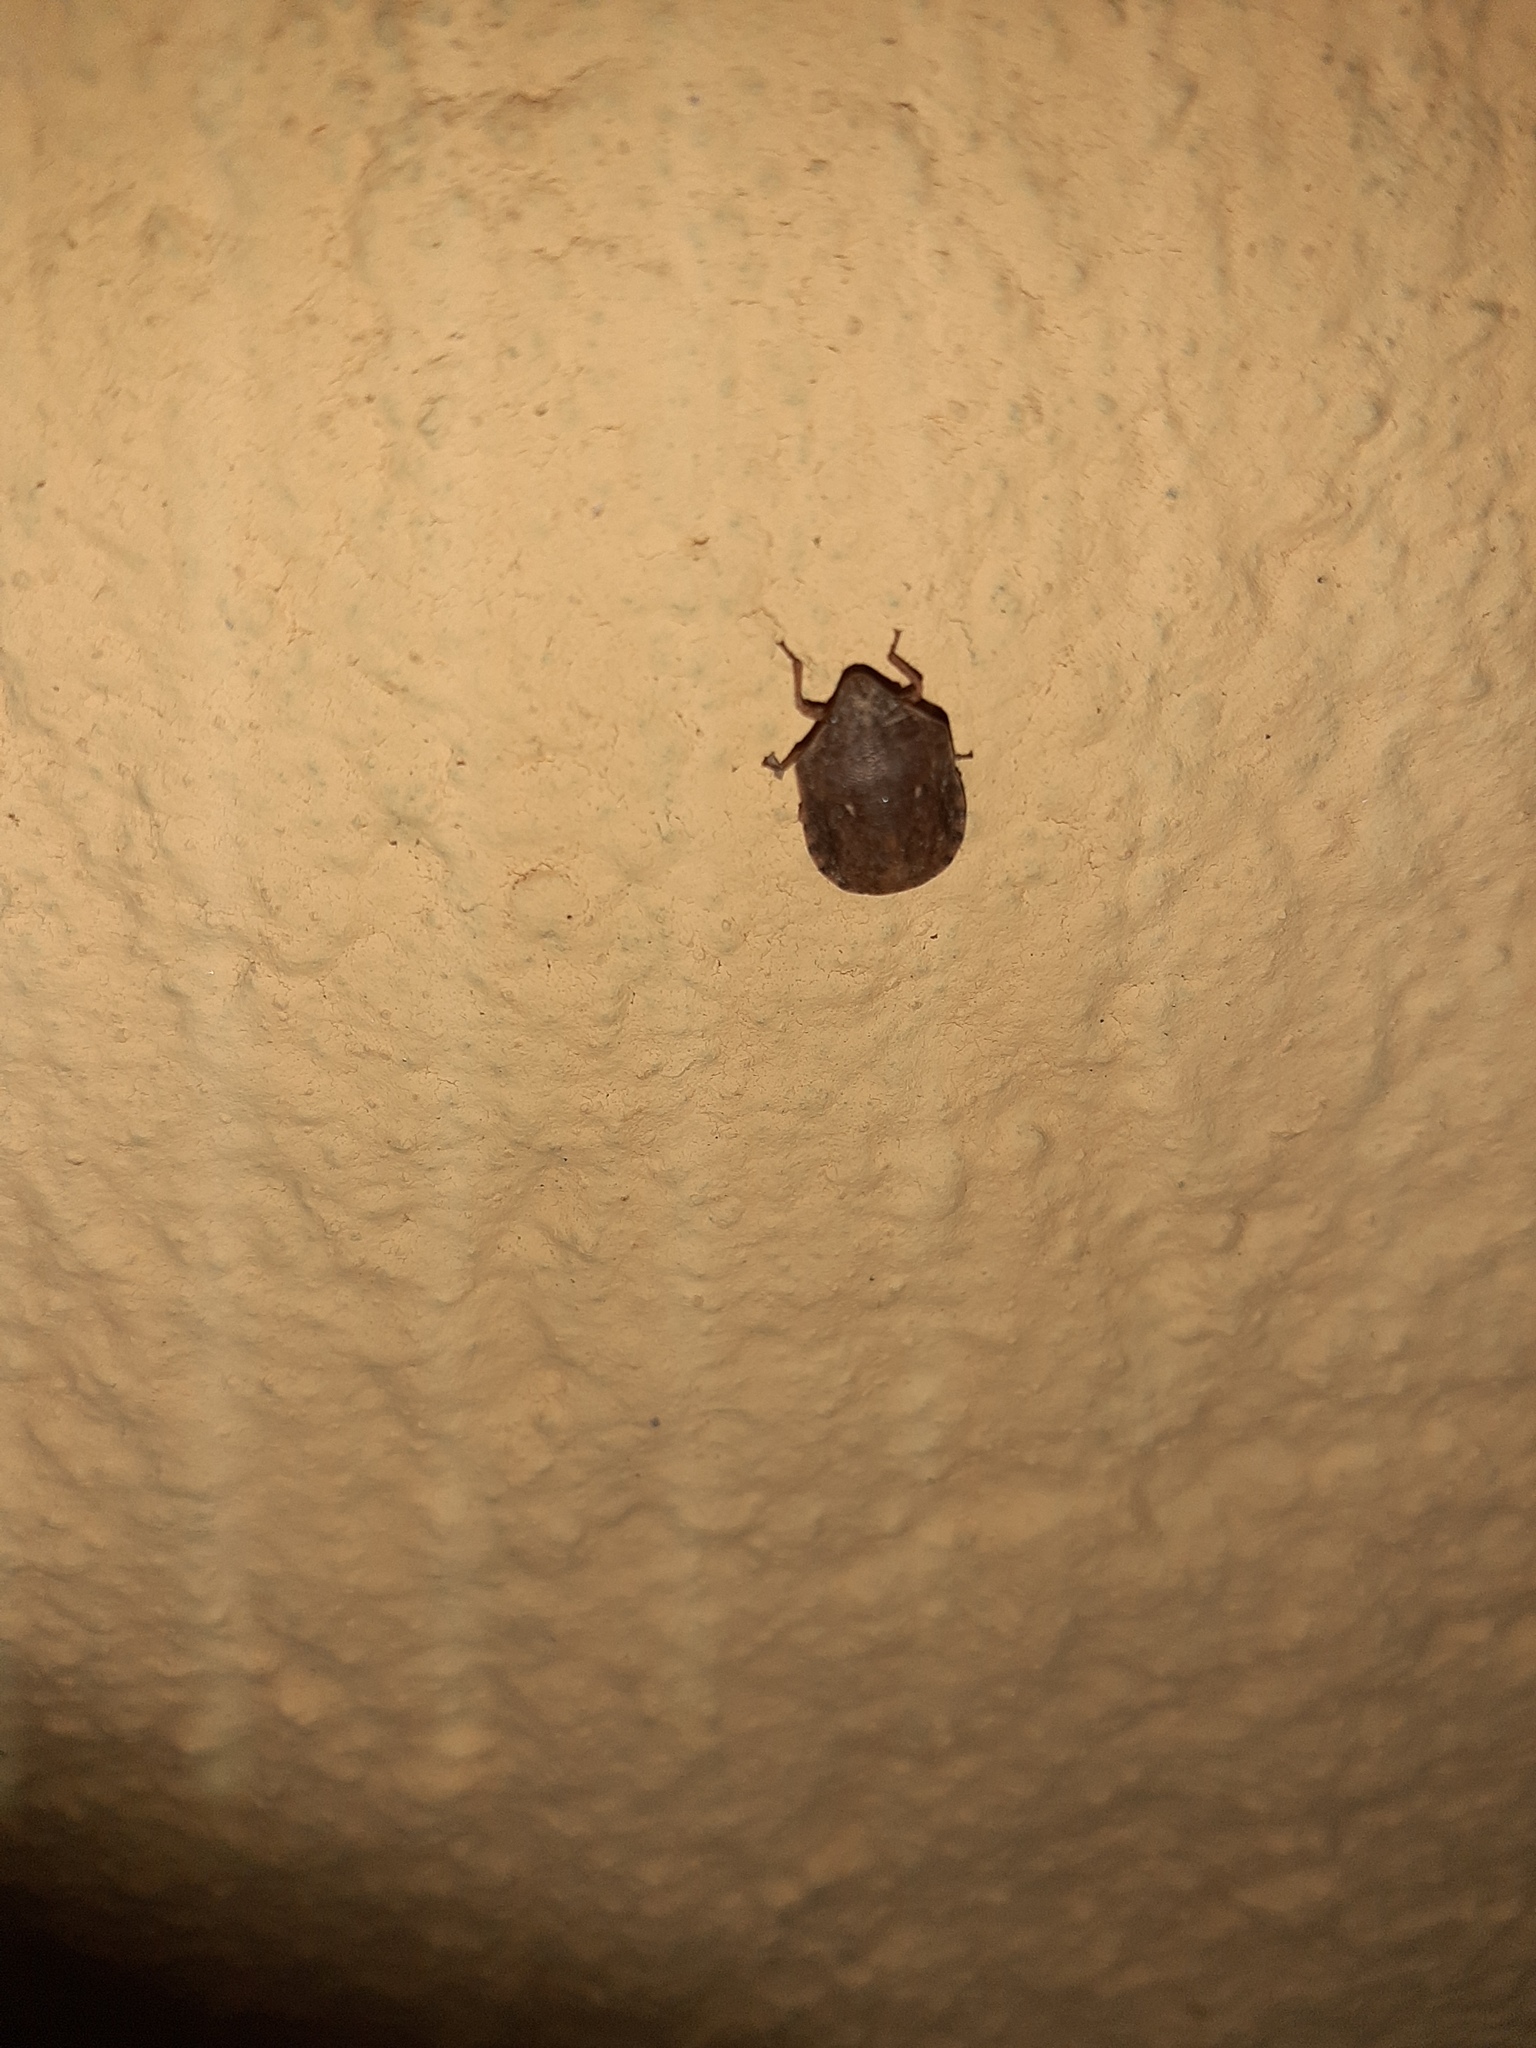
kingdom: Animalia
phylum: Arthropoda
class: Insecta
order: Hemiptera
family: Scutelleridae
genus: Eurygaster
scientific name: Eurygaster maura
